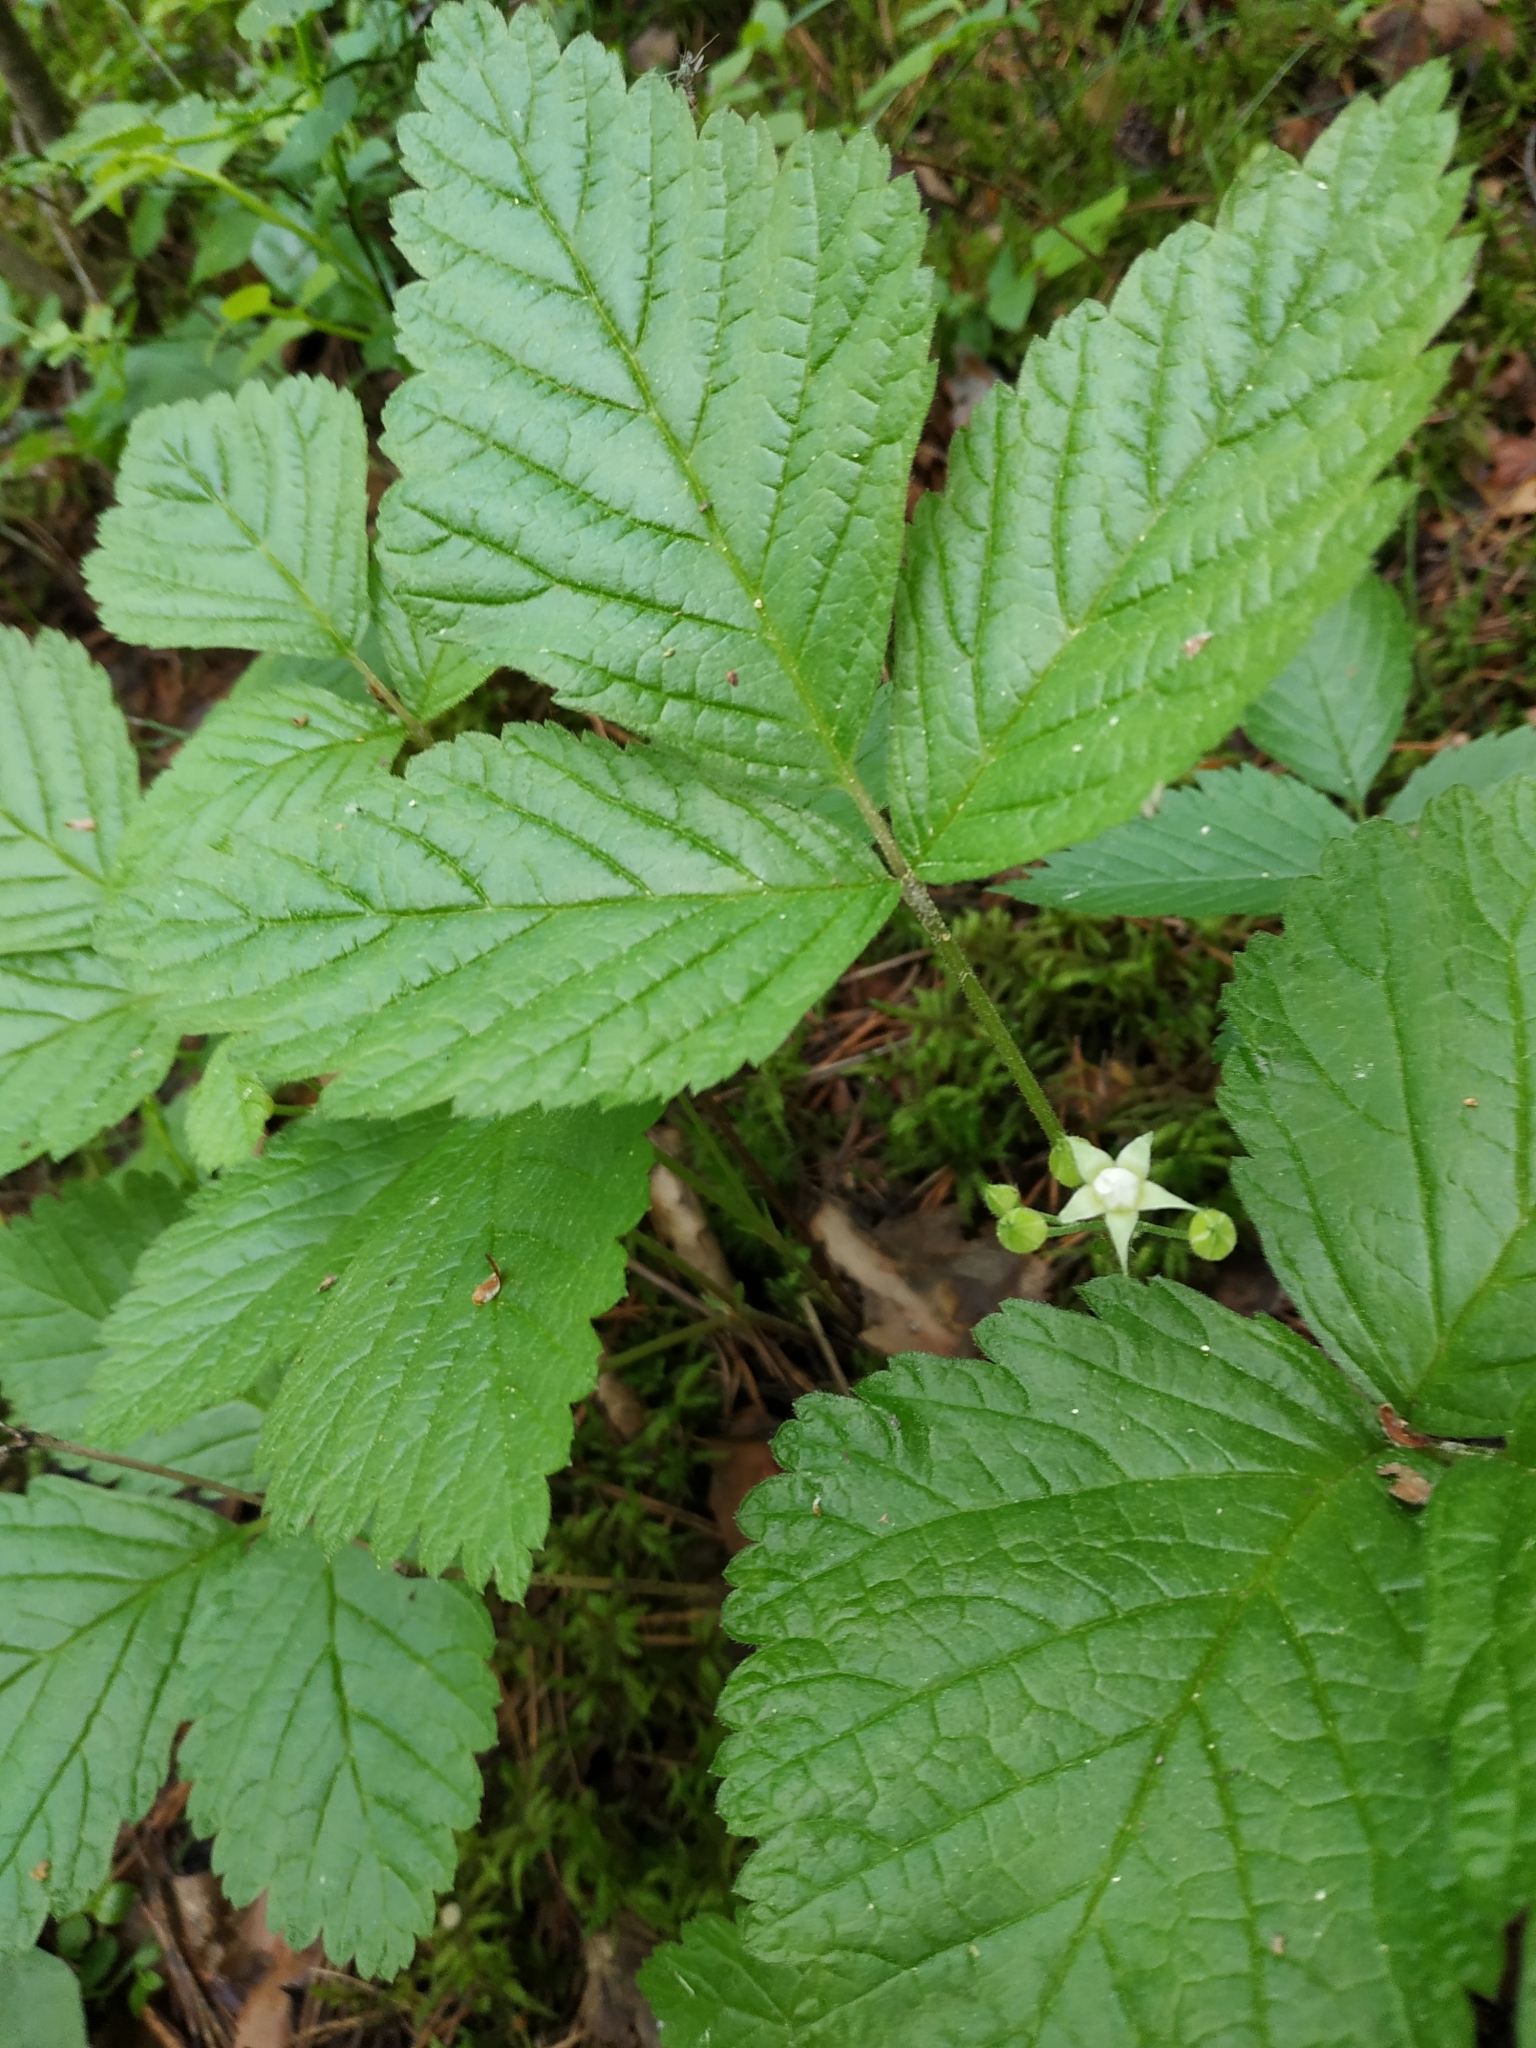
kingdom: Plantae
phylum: Tracheophyta
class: Magnoliopsida
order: Rosales
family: Rosaceae
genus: Rubus
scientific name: Rubus saxatilis
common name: Stone bramble
